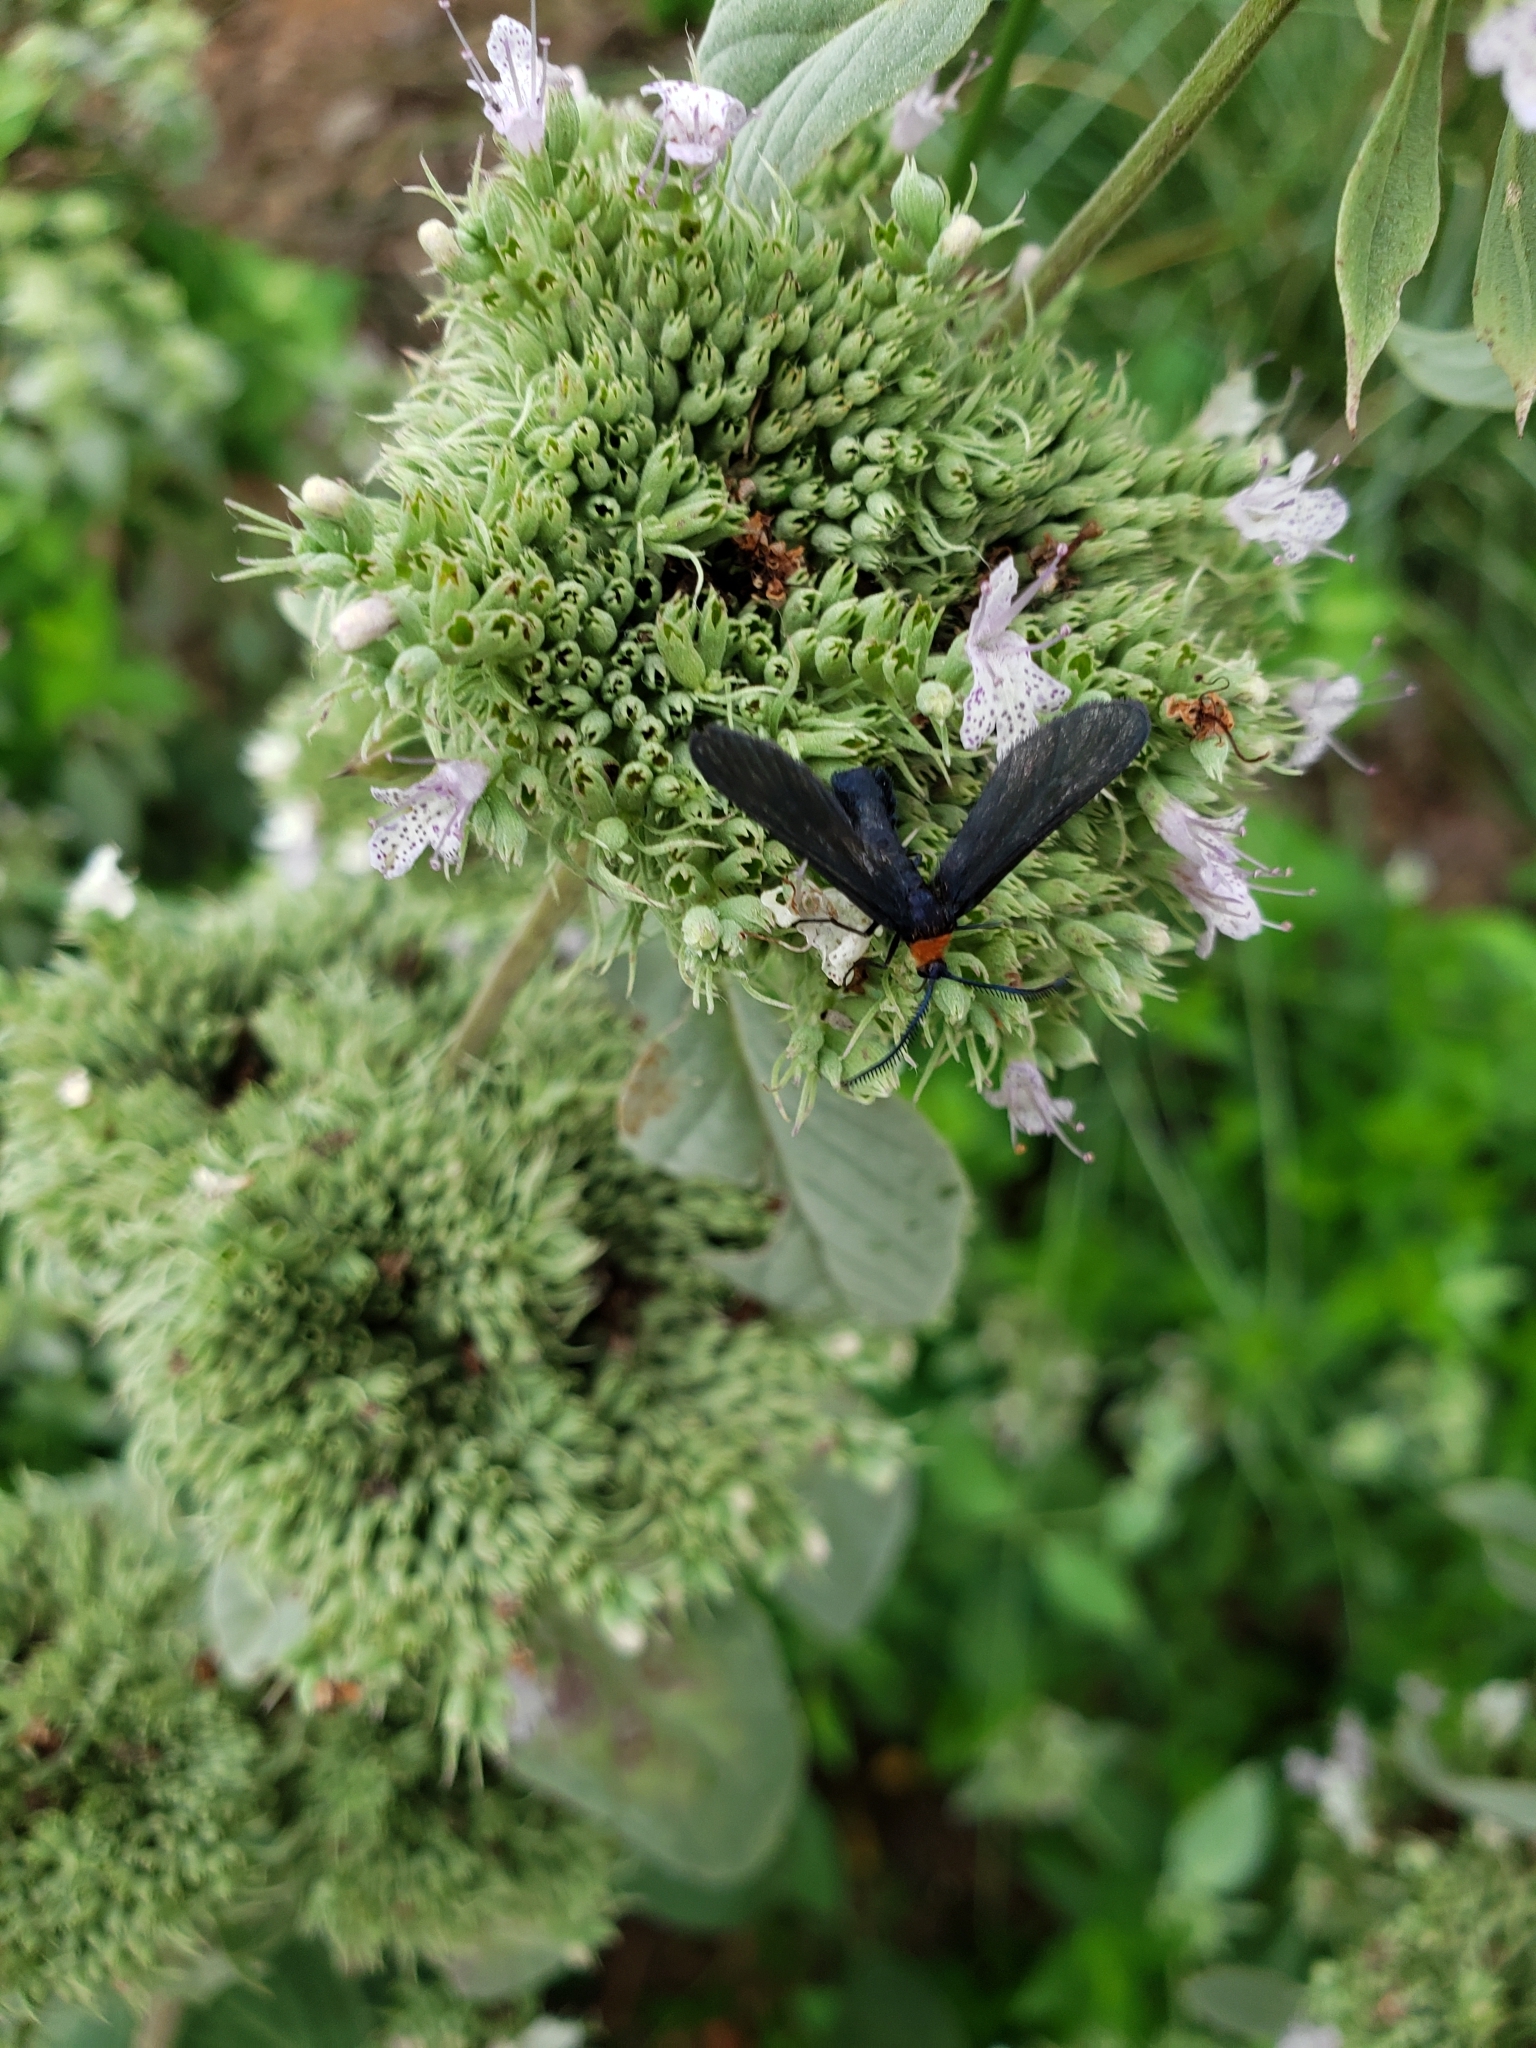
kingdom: Animalia
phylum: Arthropoda
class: Insecta
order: Lepidoptera
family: Zygaenidae
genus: Harrisina
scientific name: Harrisina americana
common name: Grapeleaf skeletonizer moth
